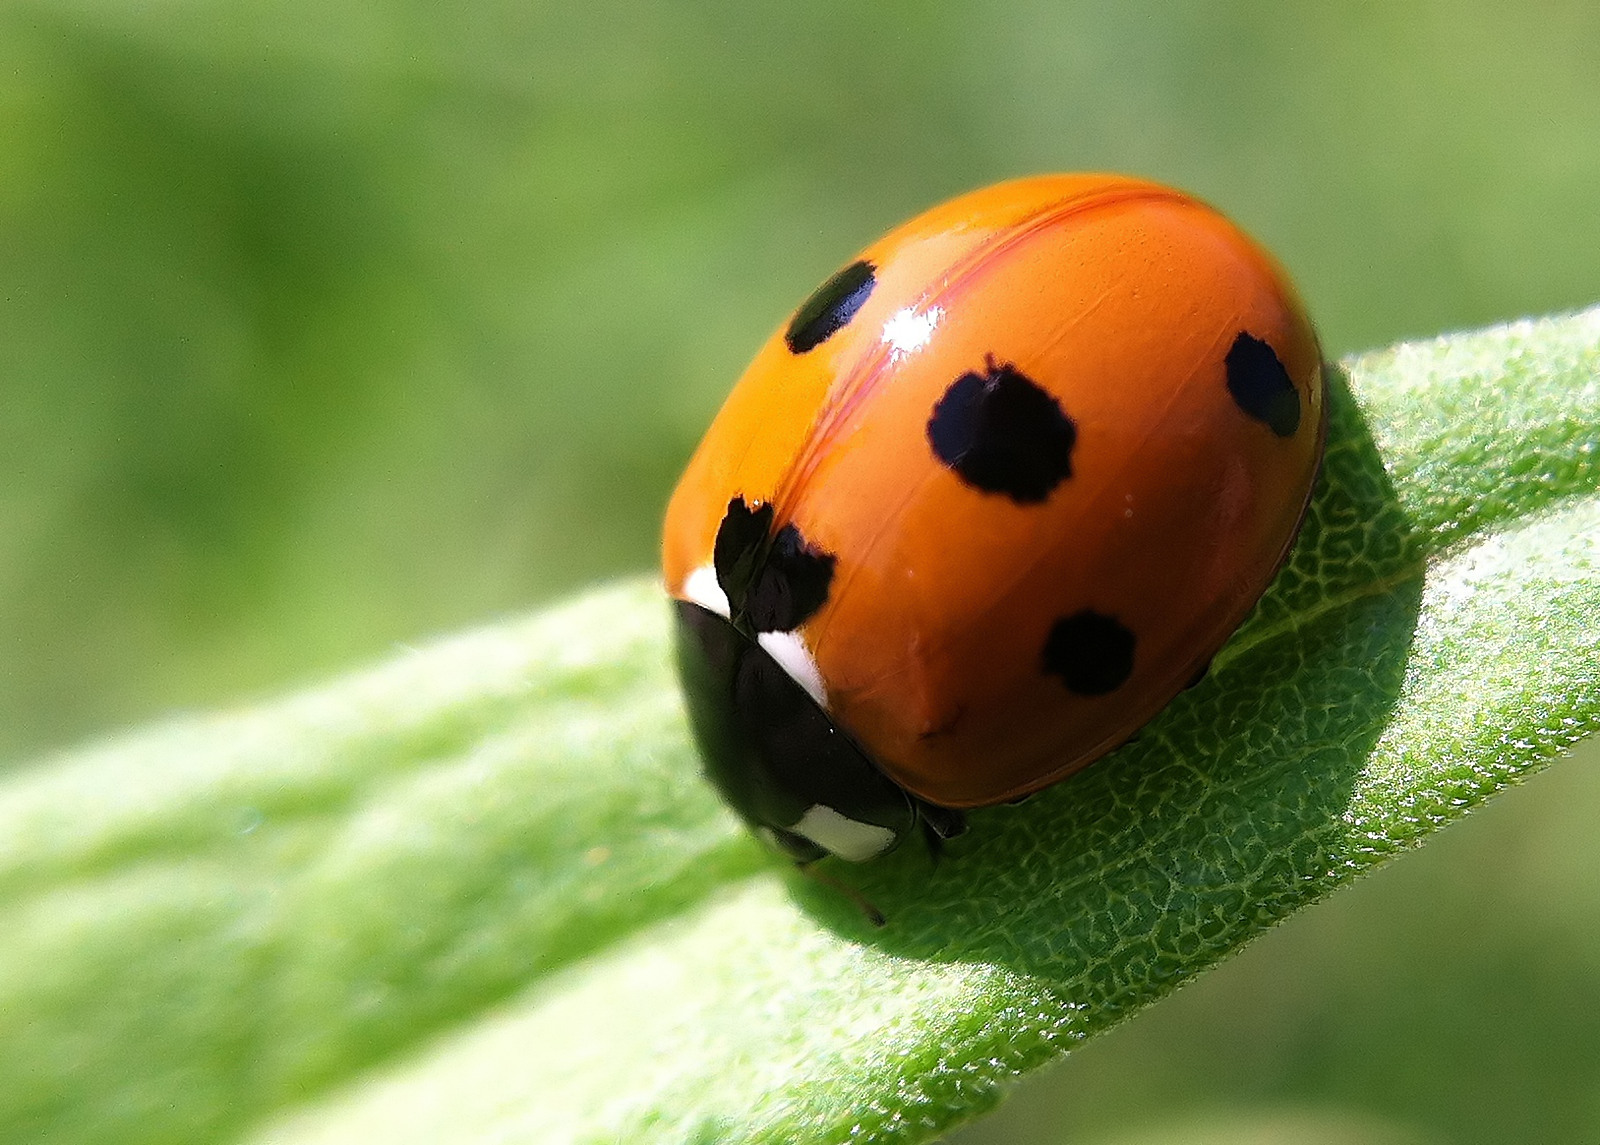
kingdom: Animalia
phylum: Arthropoda
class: Insecta
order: Coleoptera
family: Coccinellidae
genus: Coccinella
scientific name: Coccinella septempunctata
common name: Sevenspotted lady beetle
